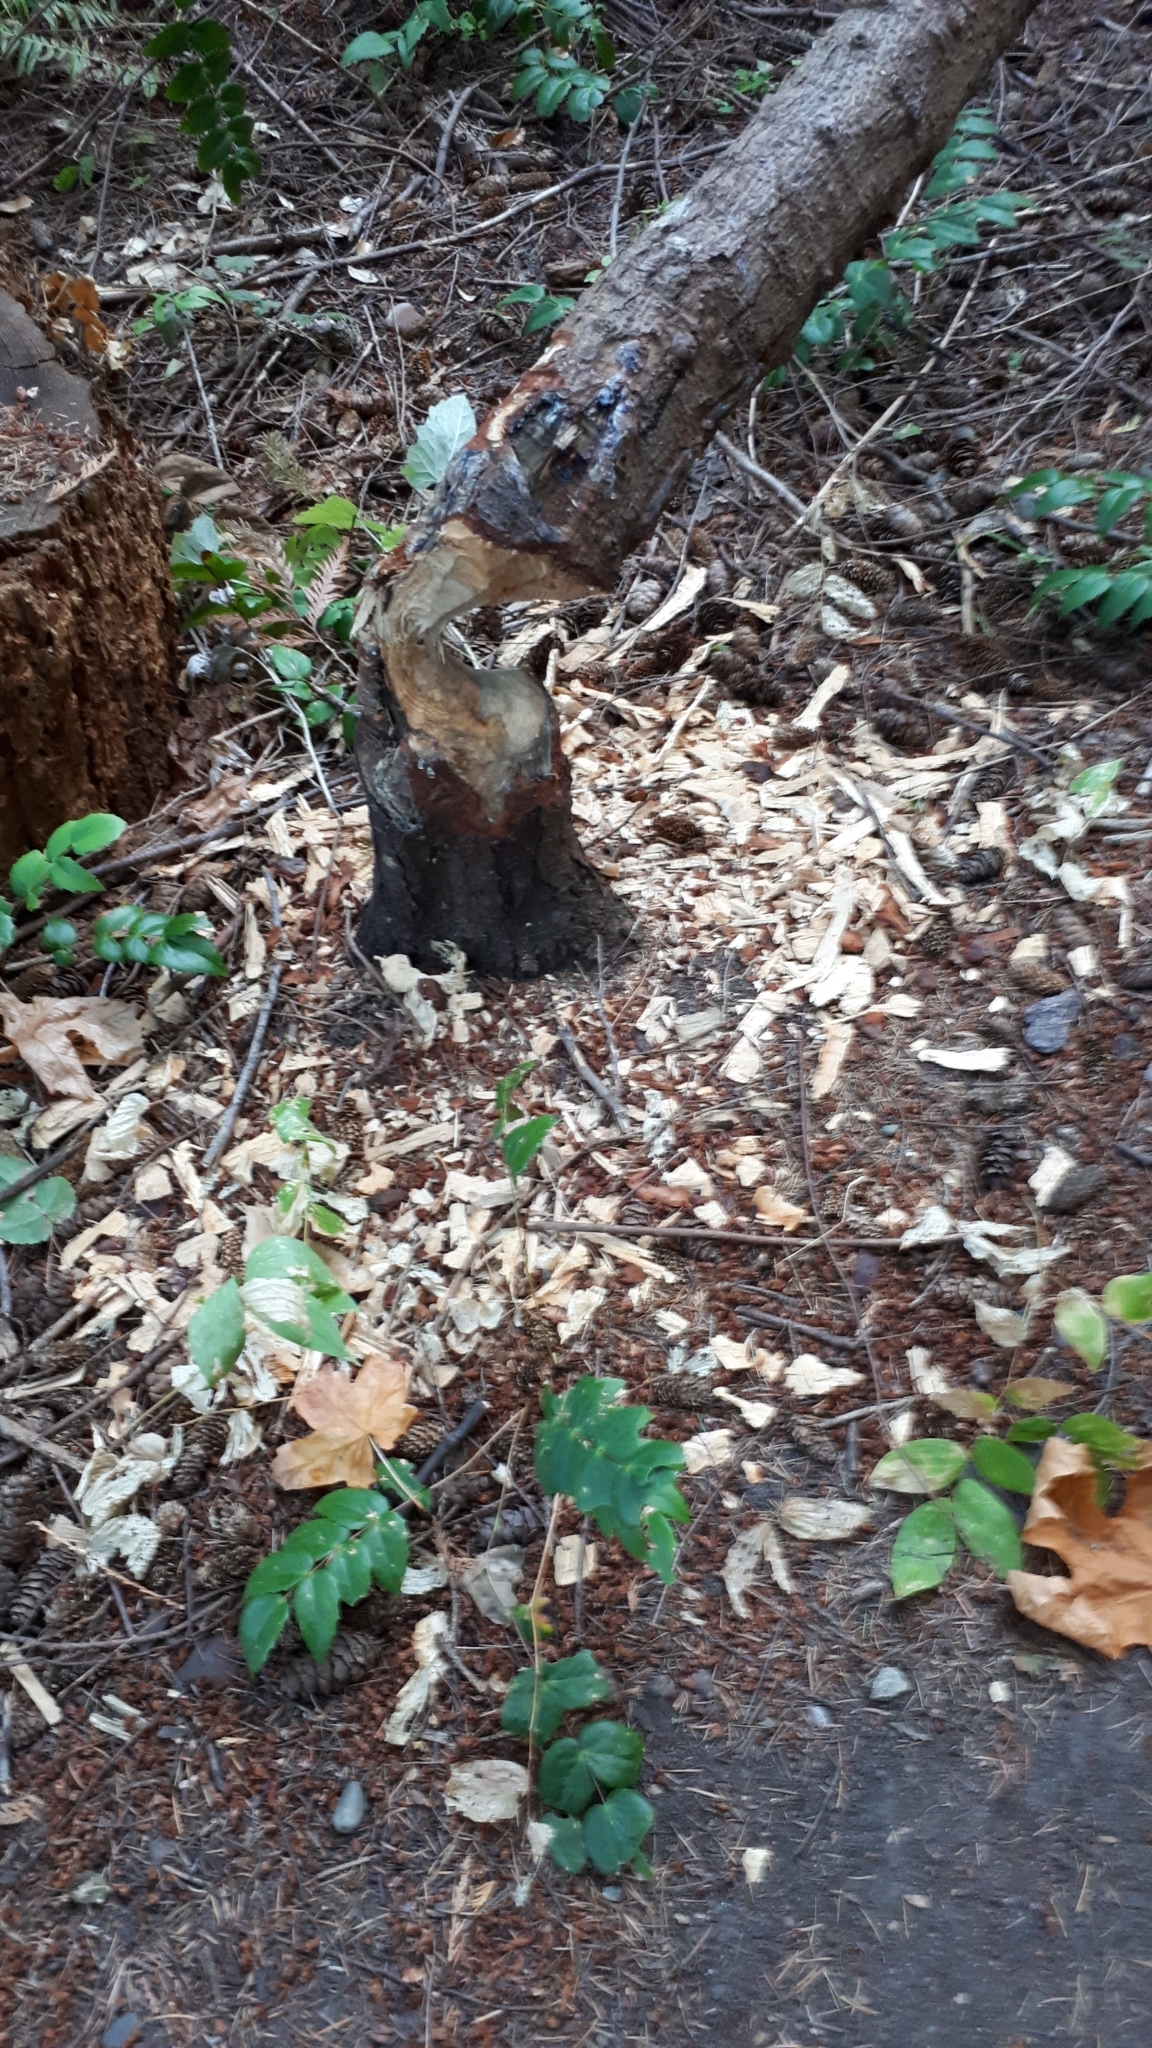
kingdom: Animalia
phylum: Chordata
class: Mammalia
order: Rodentia
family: Castoridae
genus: Castor
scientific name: Castor canadensis
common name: American beaver
